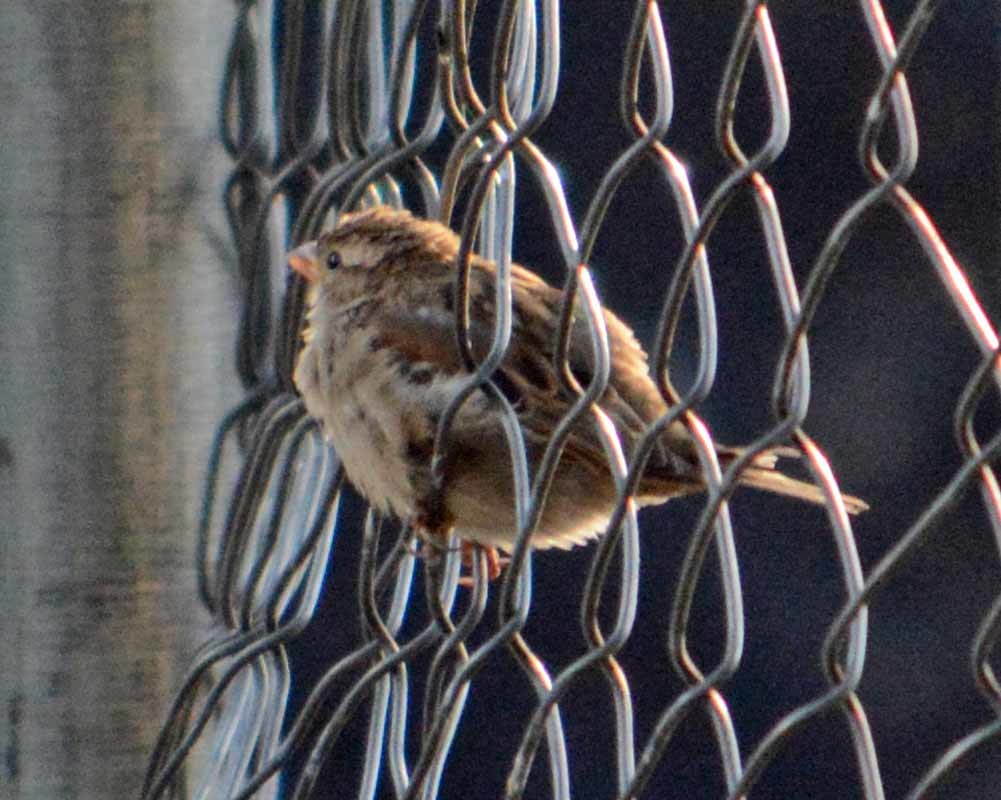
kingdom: Animalia
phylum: Chordata
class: Aves
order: Passeriformes
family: Passeridae
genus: Passer
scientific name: Passer domesticus
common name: House sparrow
